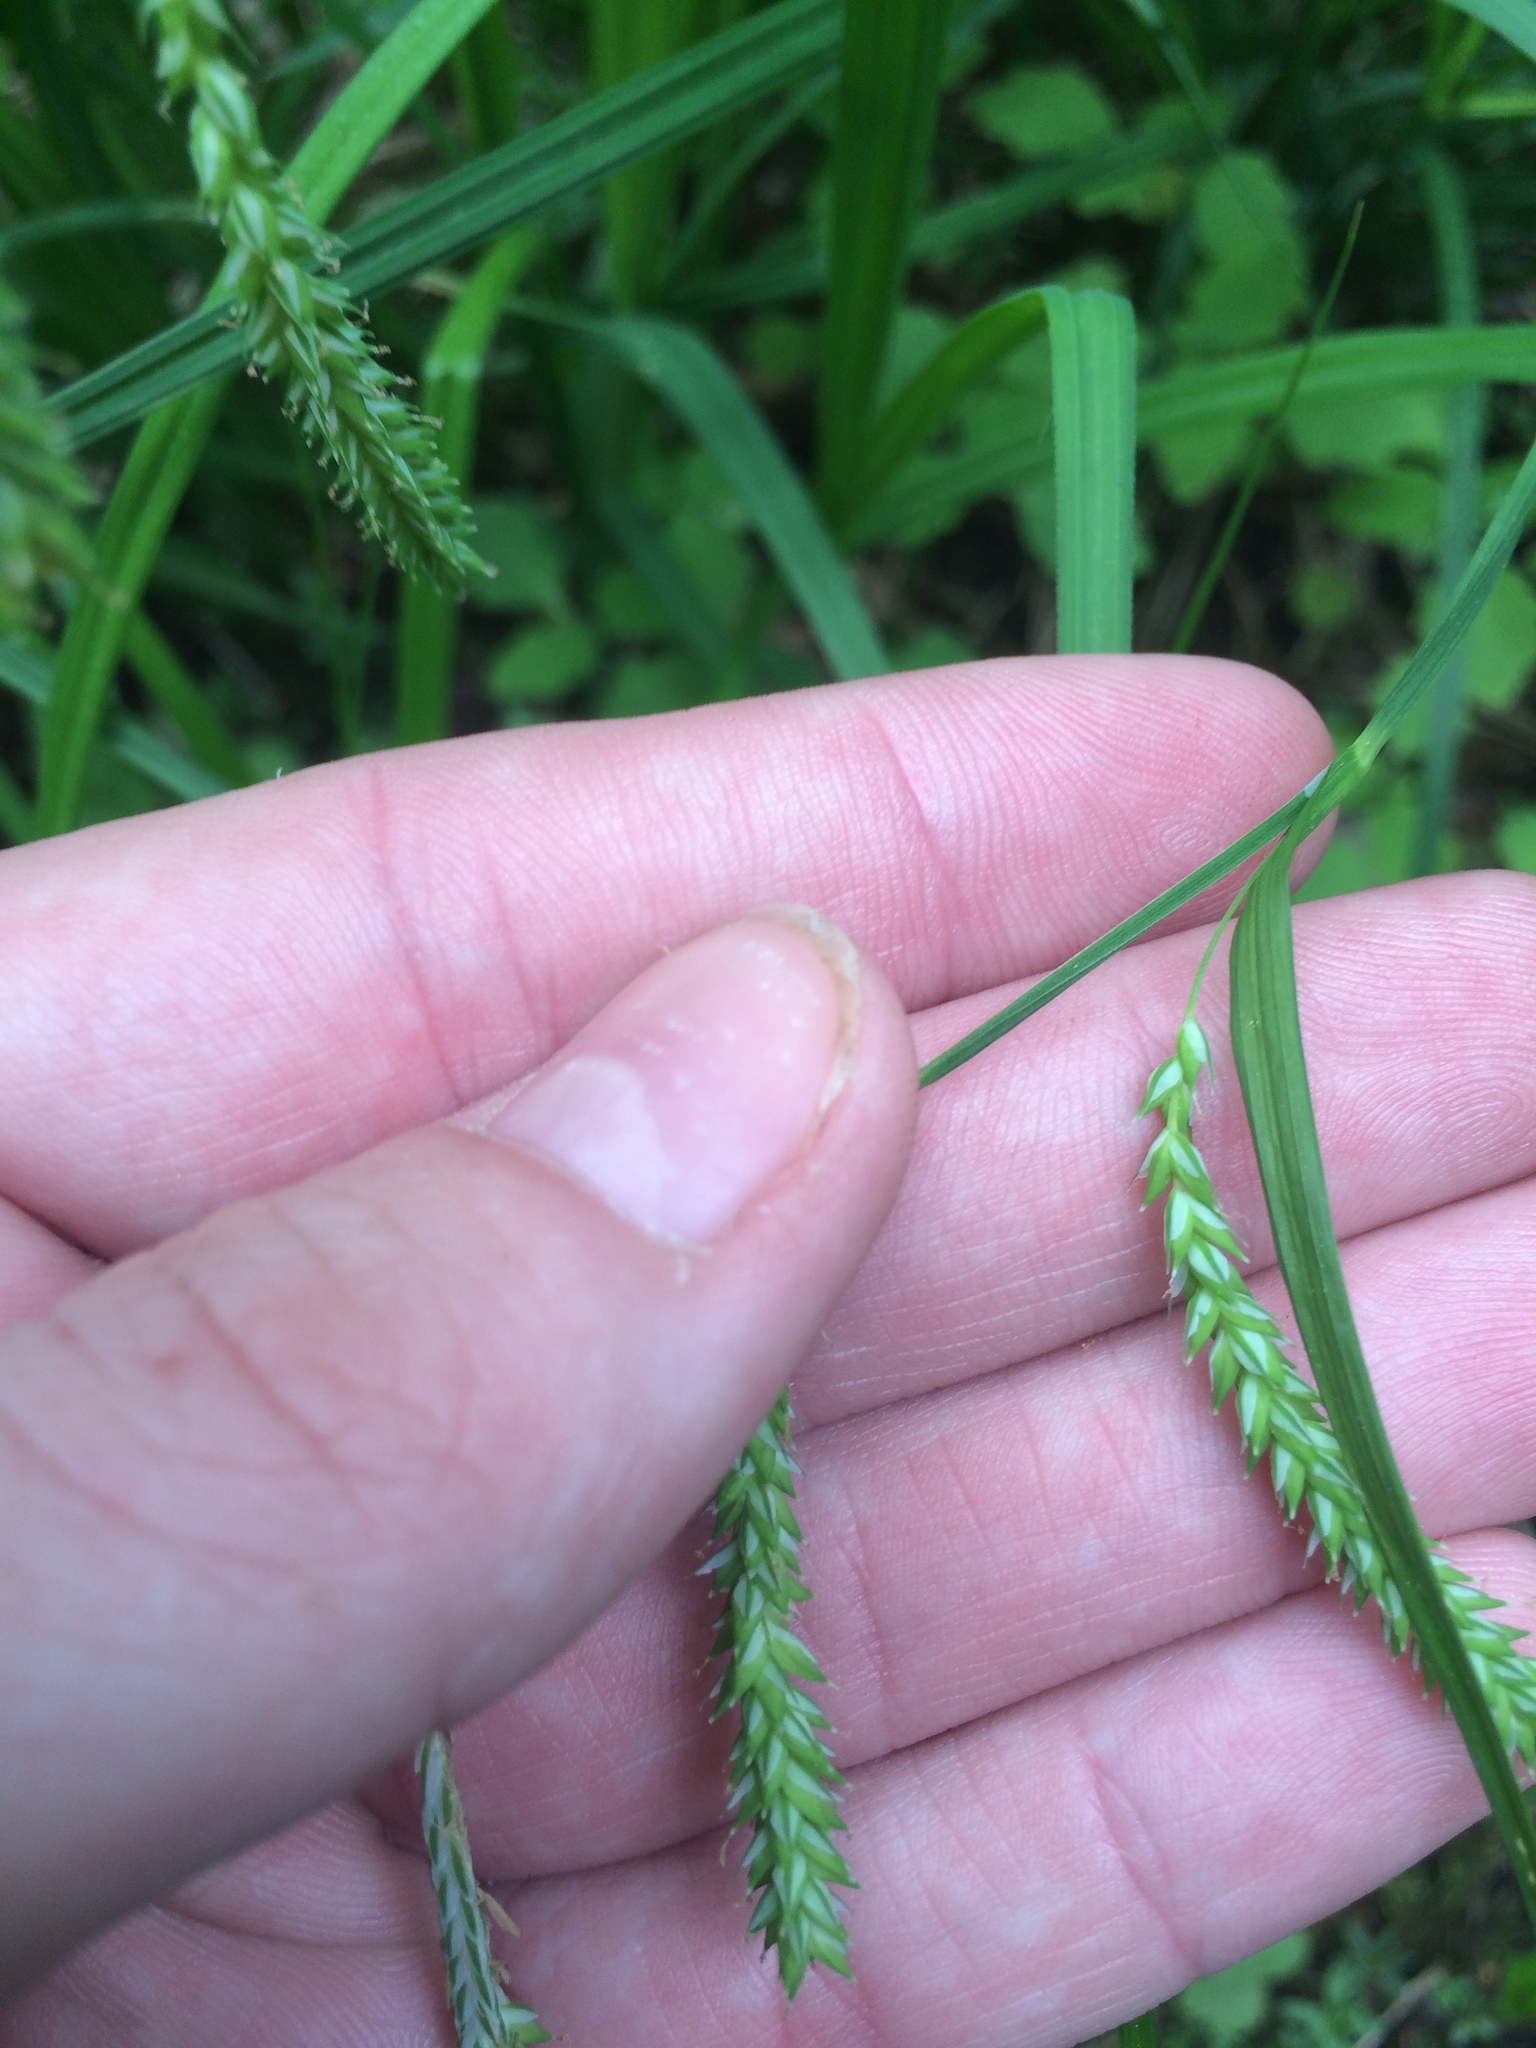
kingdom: Plantae
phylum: Tracheophyta
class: Liliopsida
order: Poales
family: Cyperaceae
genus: Carex
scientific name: Carex prasina
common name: Drooping sedge
